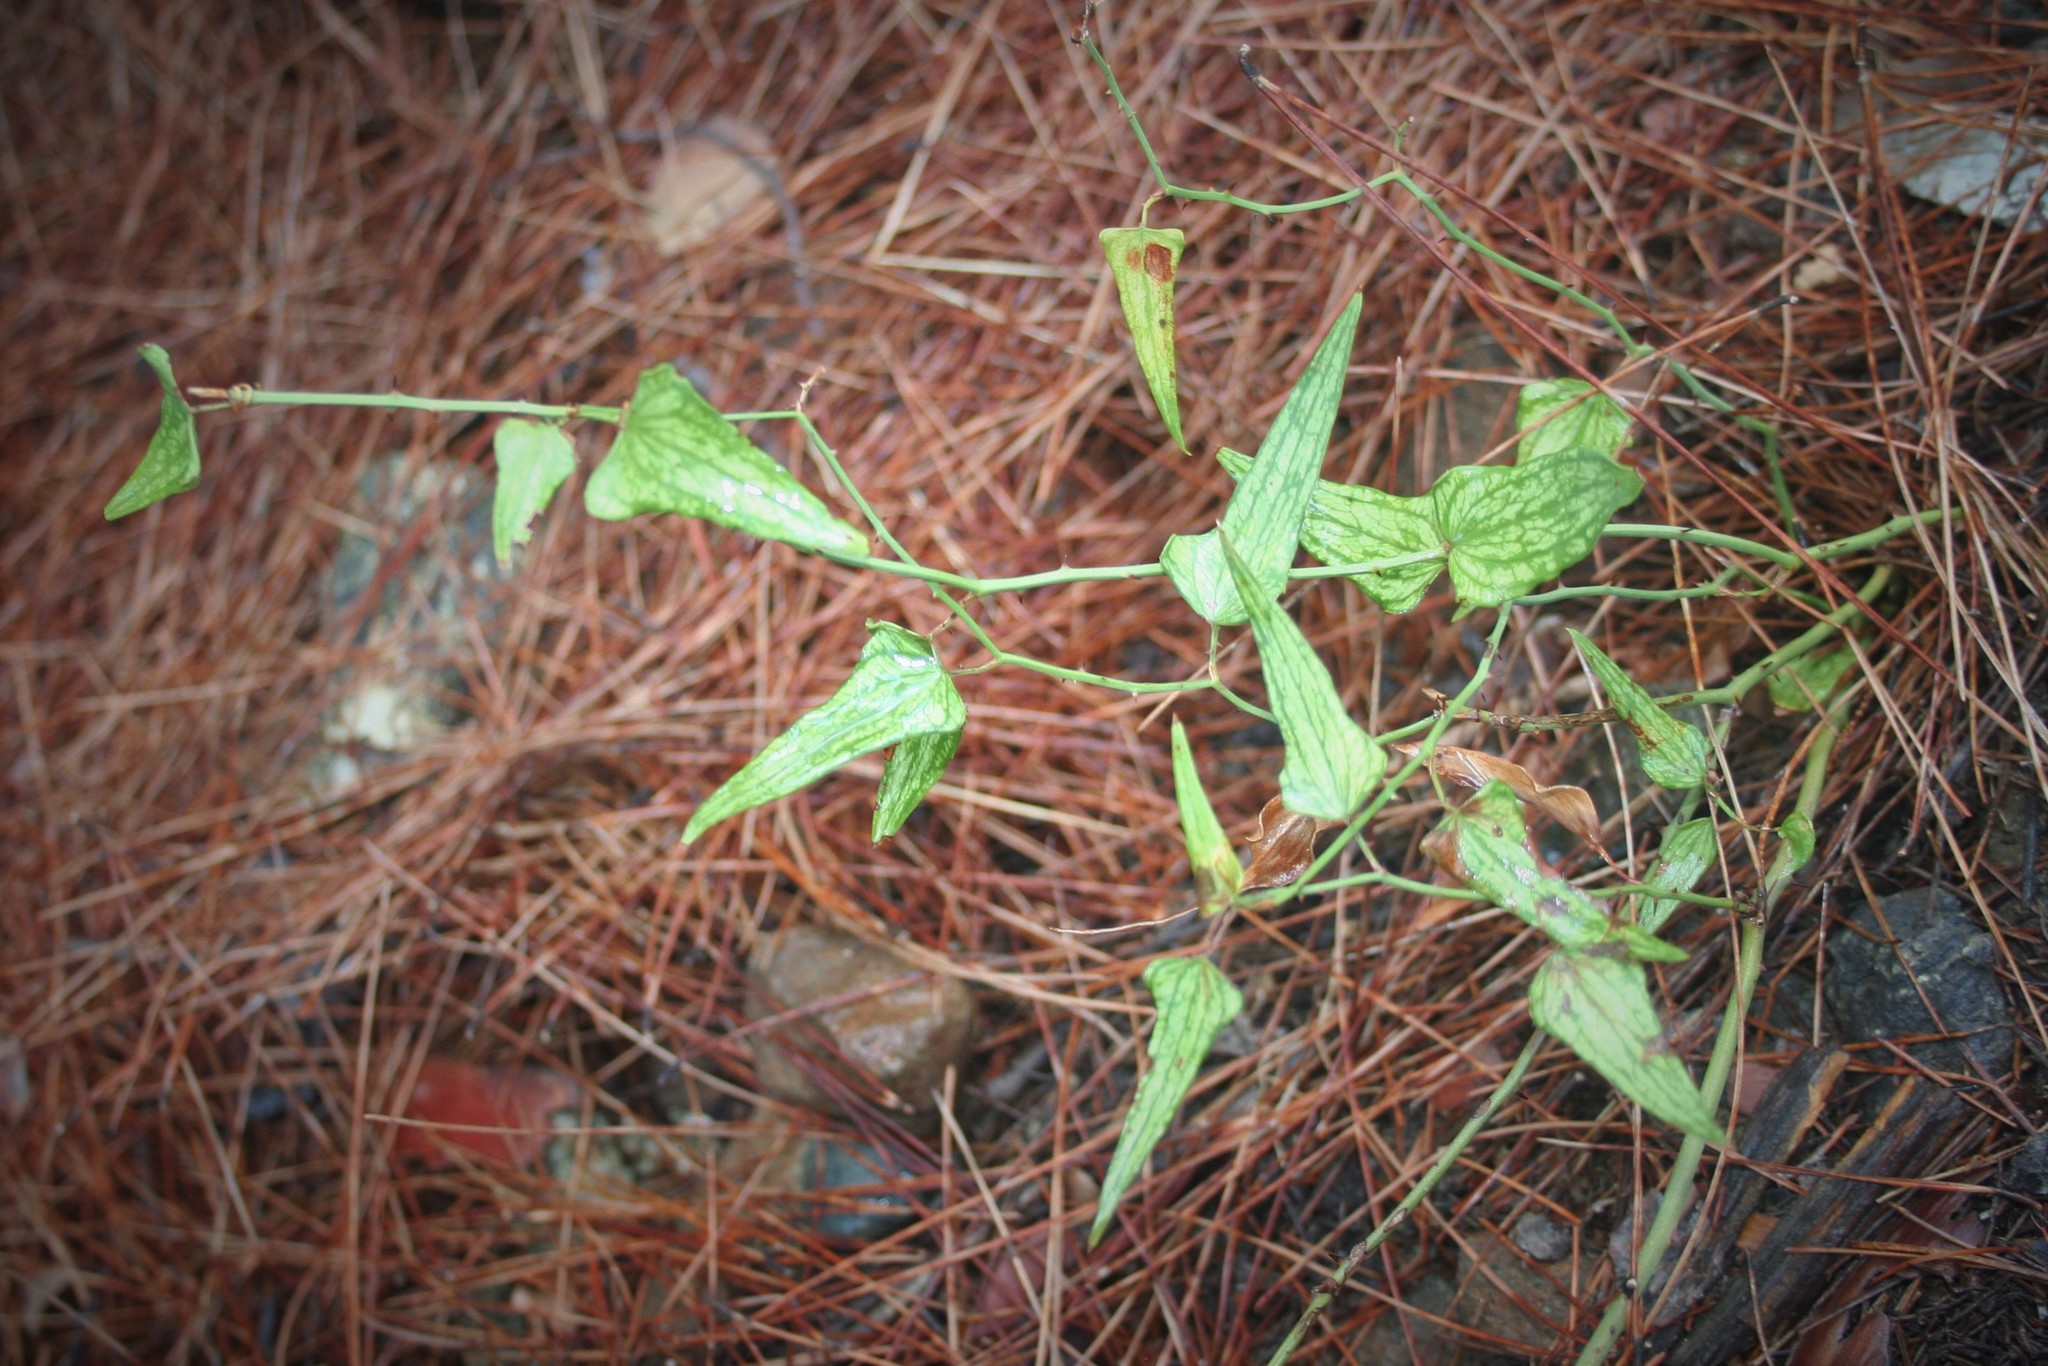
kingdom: Plantae
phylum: Tracheophyta
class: Liliopsida
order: Liliales
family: Smilacaceae
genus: Smilax
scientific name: Smilax aspera
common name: Common smilax
